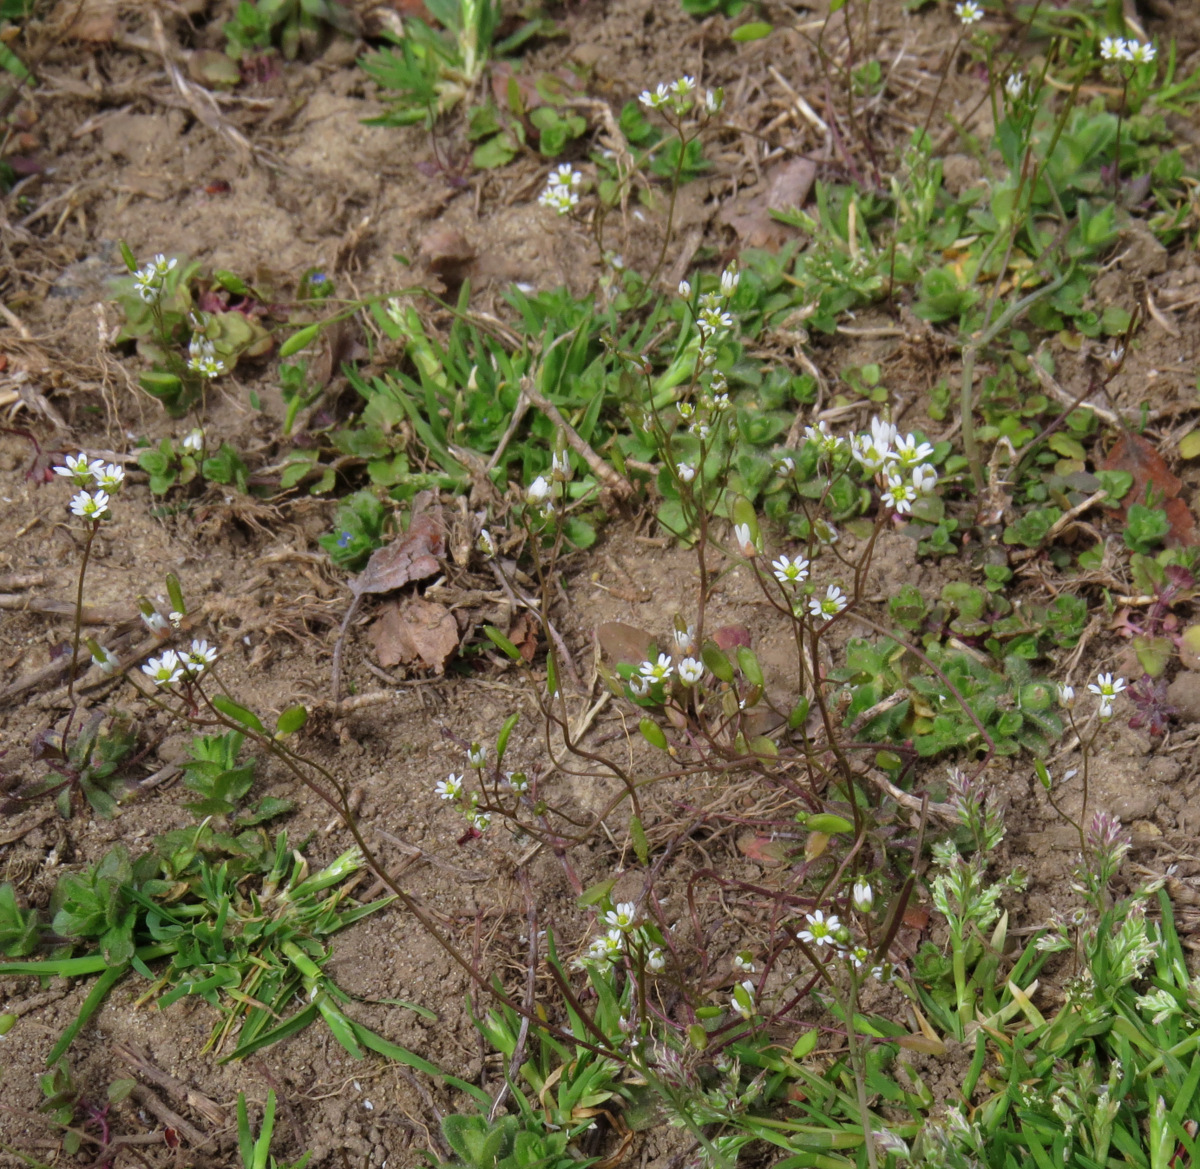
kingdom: Plantae
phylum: Tracheophyta
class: Magnoliopsida
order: Brassicales
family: Brassicaceae
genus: Draba
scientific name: Draba verna
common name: Spring draba
